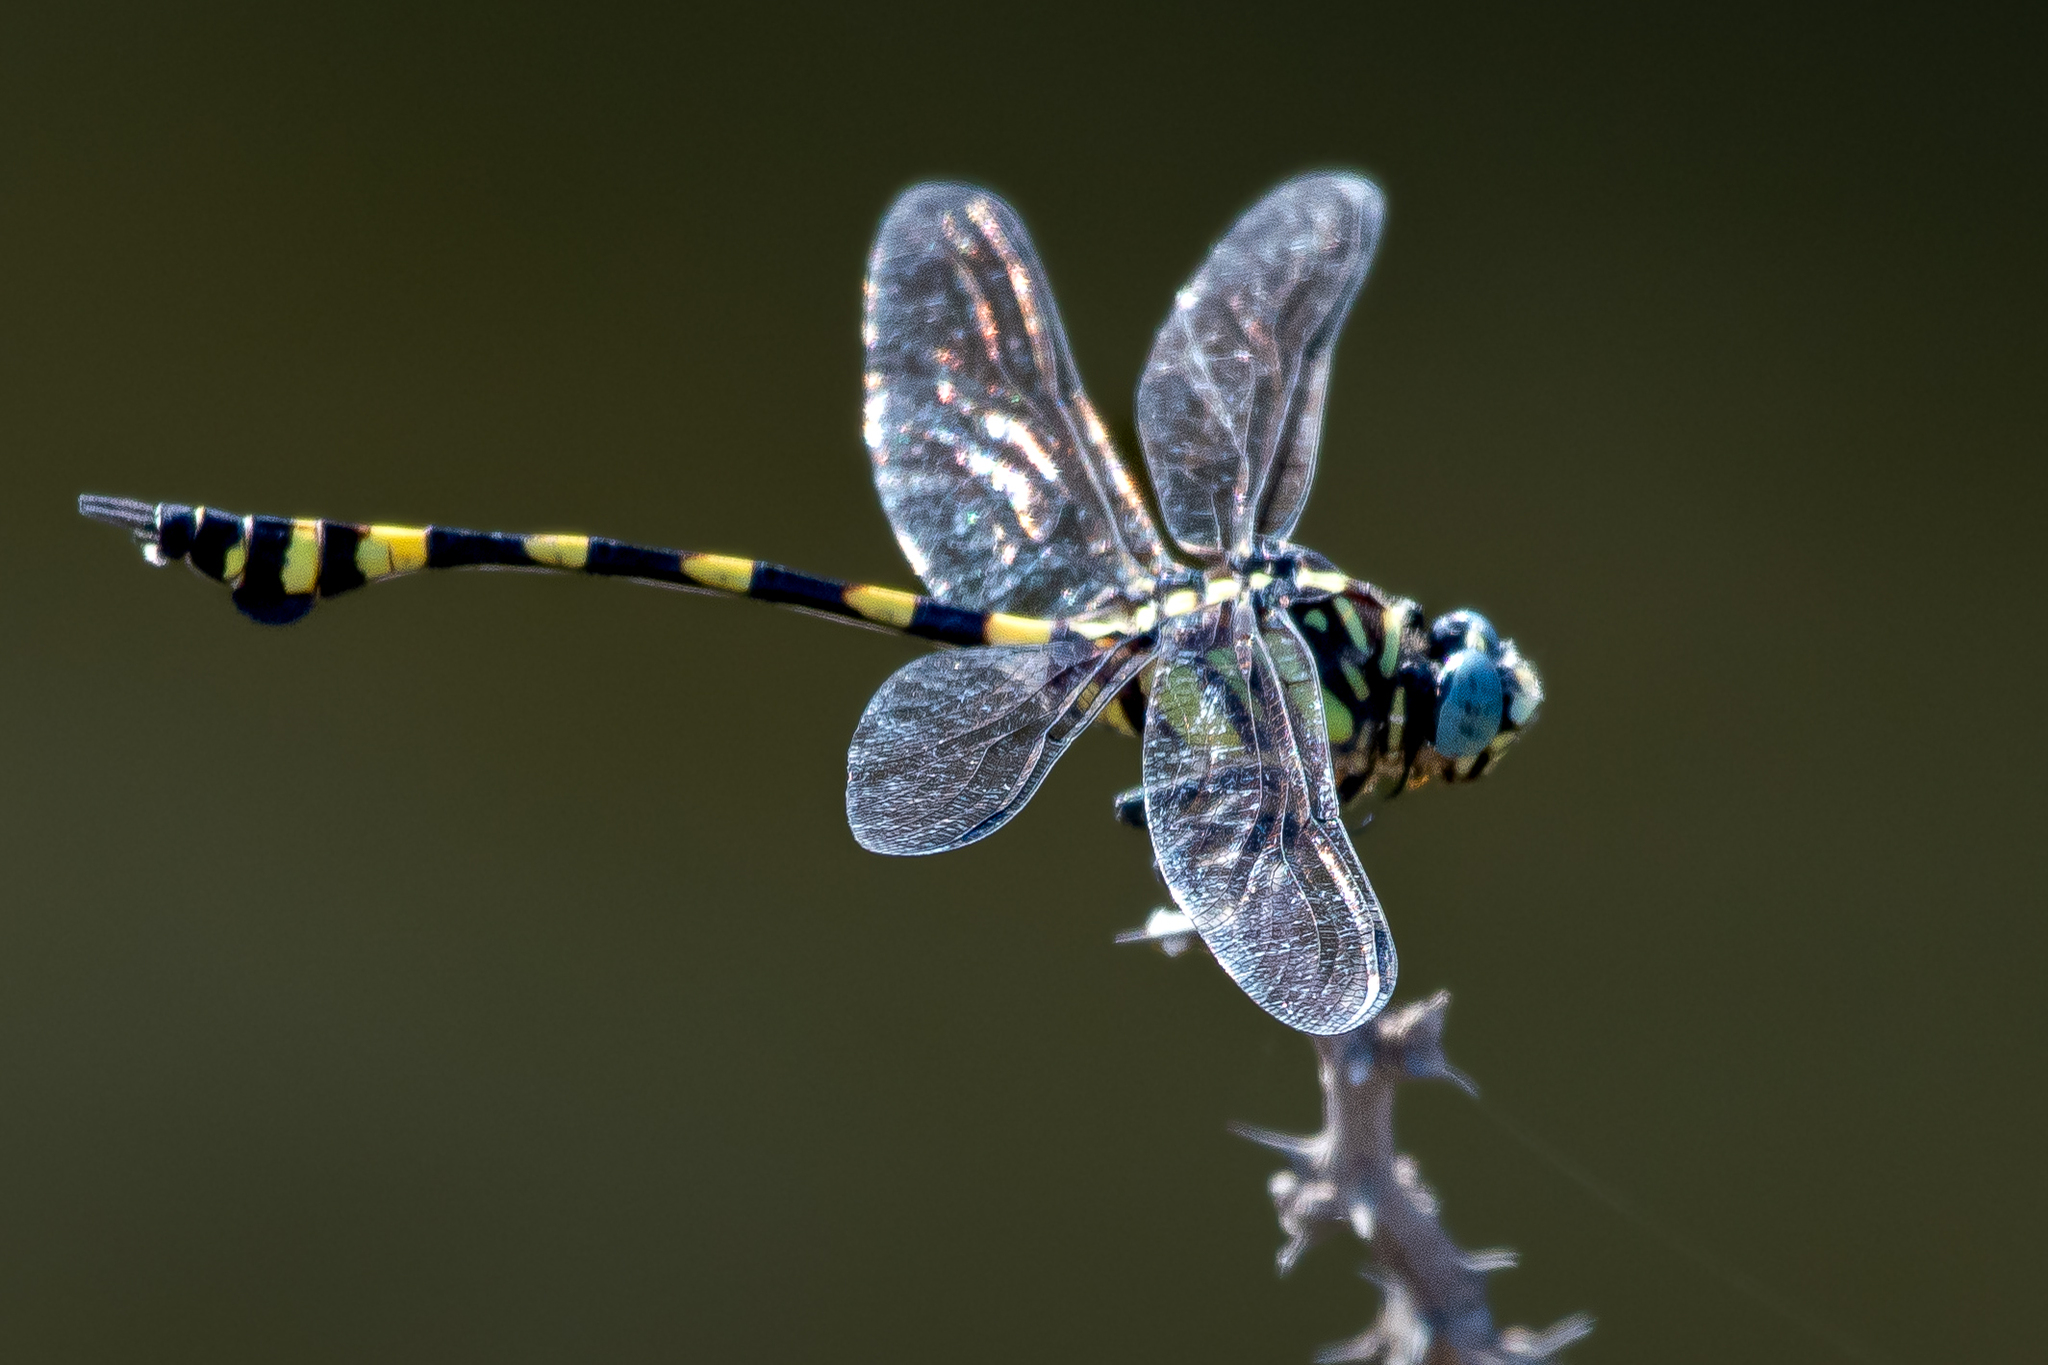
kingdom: Animalia
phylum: Arthropoda
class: Insecta
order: Odonata
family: Gomphidae
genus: Ictinogomphus
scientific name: Ictinogomphus rapax
